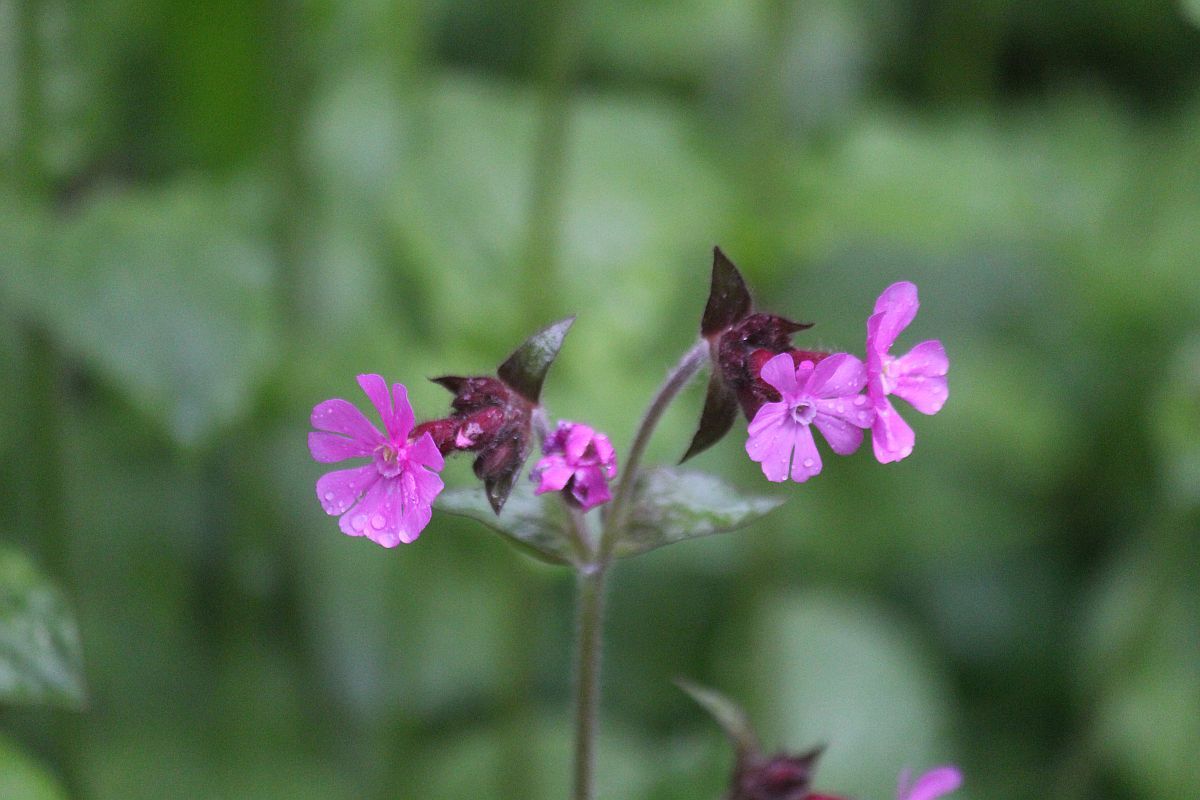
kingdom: Plantae
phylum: Tracheophyta
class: Magnoliopsida
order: Caryophyllales
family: Caryophyllaceae
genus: Silene
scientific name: Silene dioica
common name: Red campion
